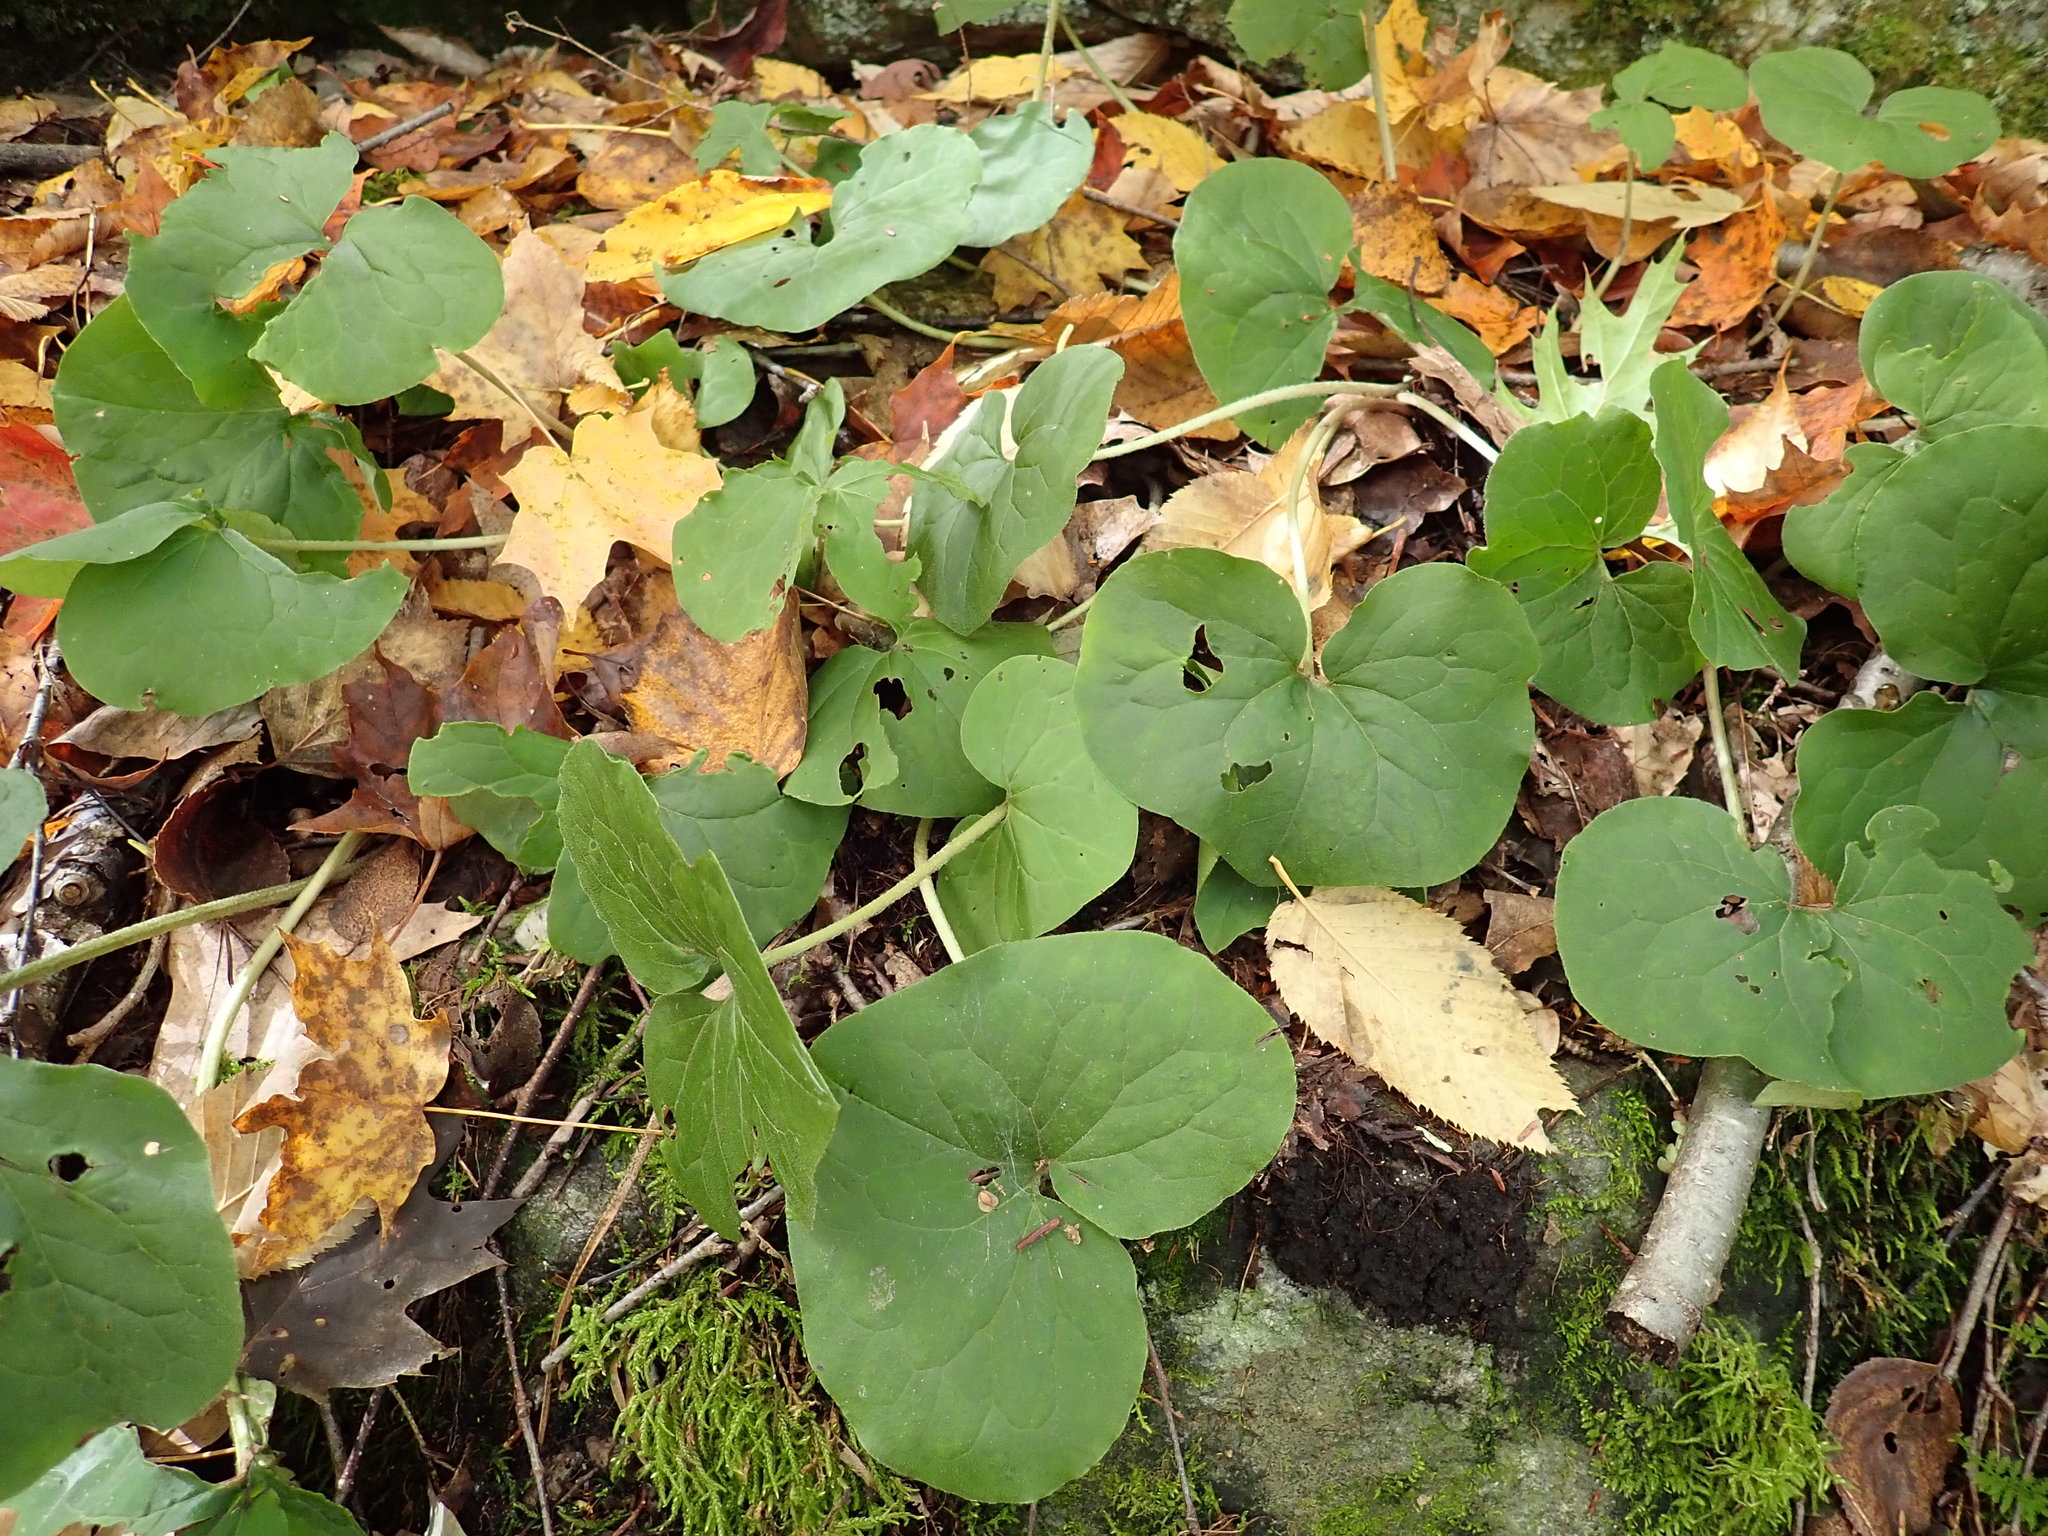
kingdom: Plantae
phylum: Tracheophyta
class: Magnoliopsida
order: Piperales
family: Aristolochiaceae
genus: Asarum
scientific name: Asarum canadense
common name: Wild ginger
